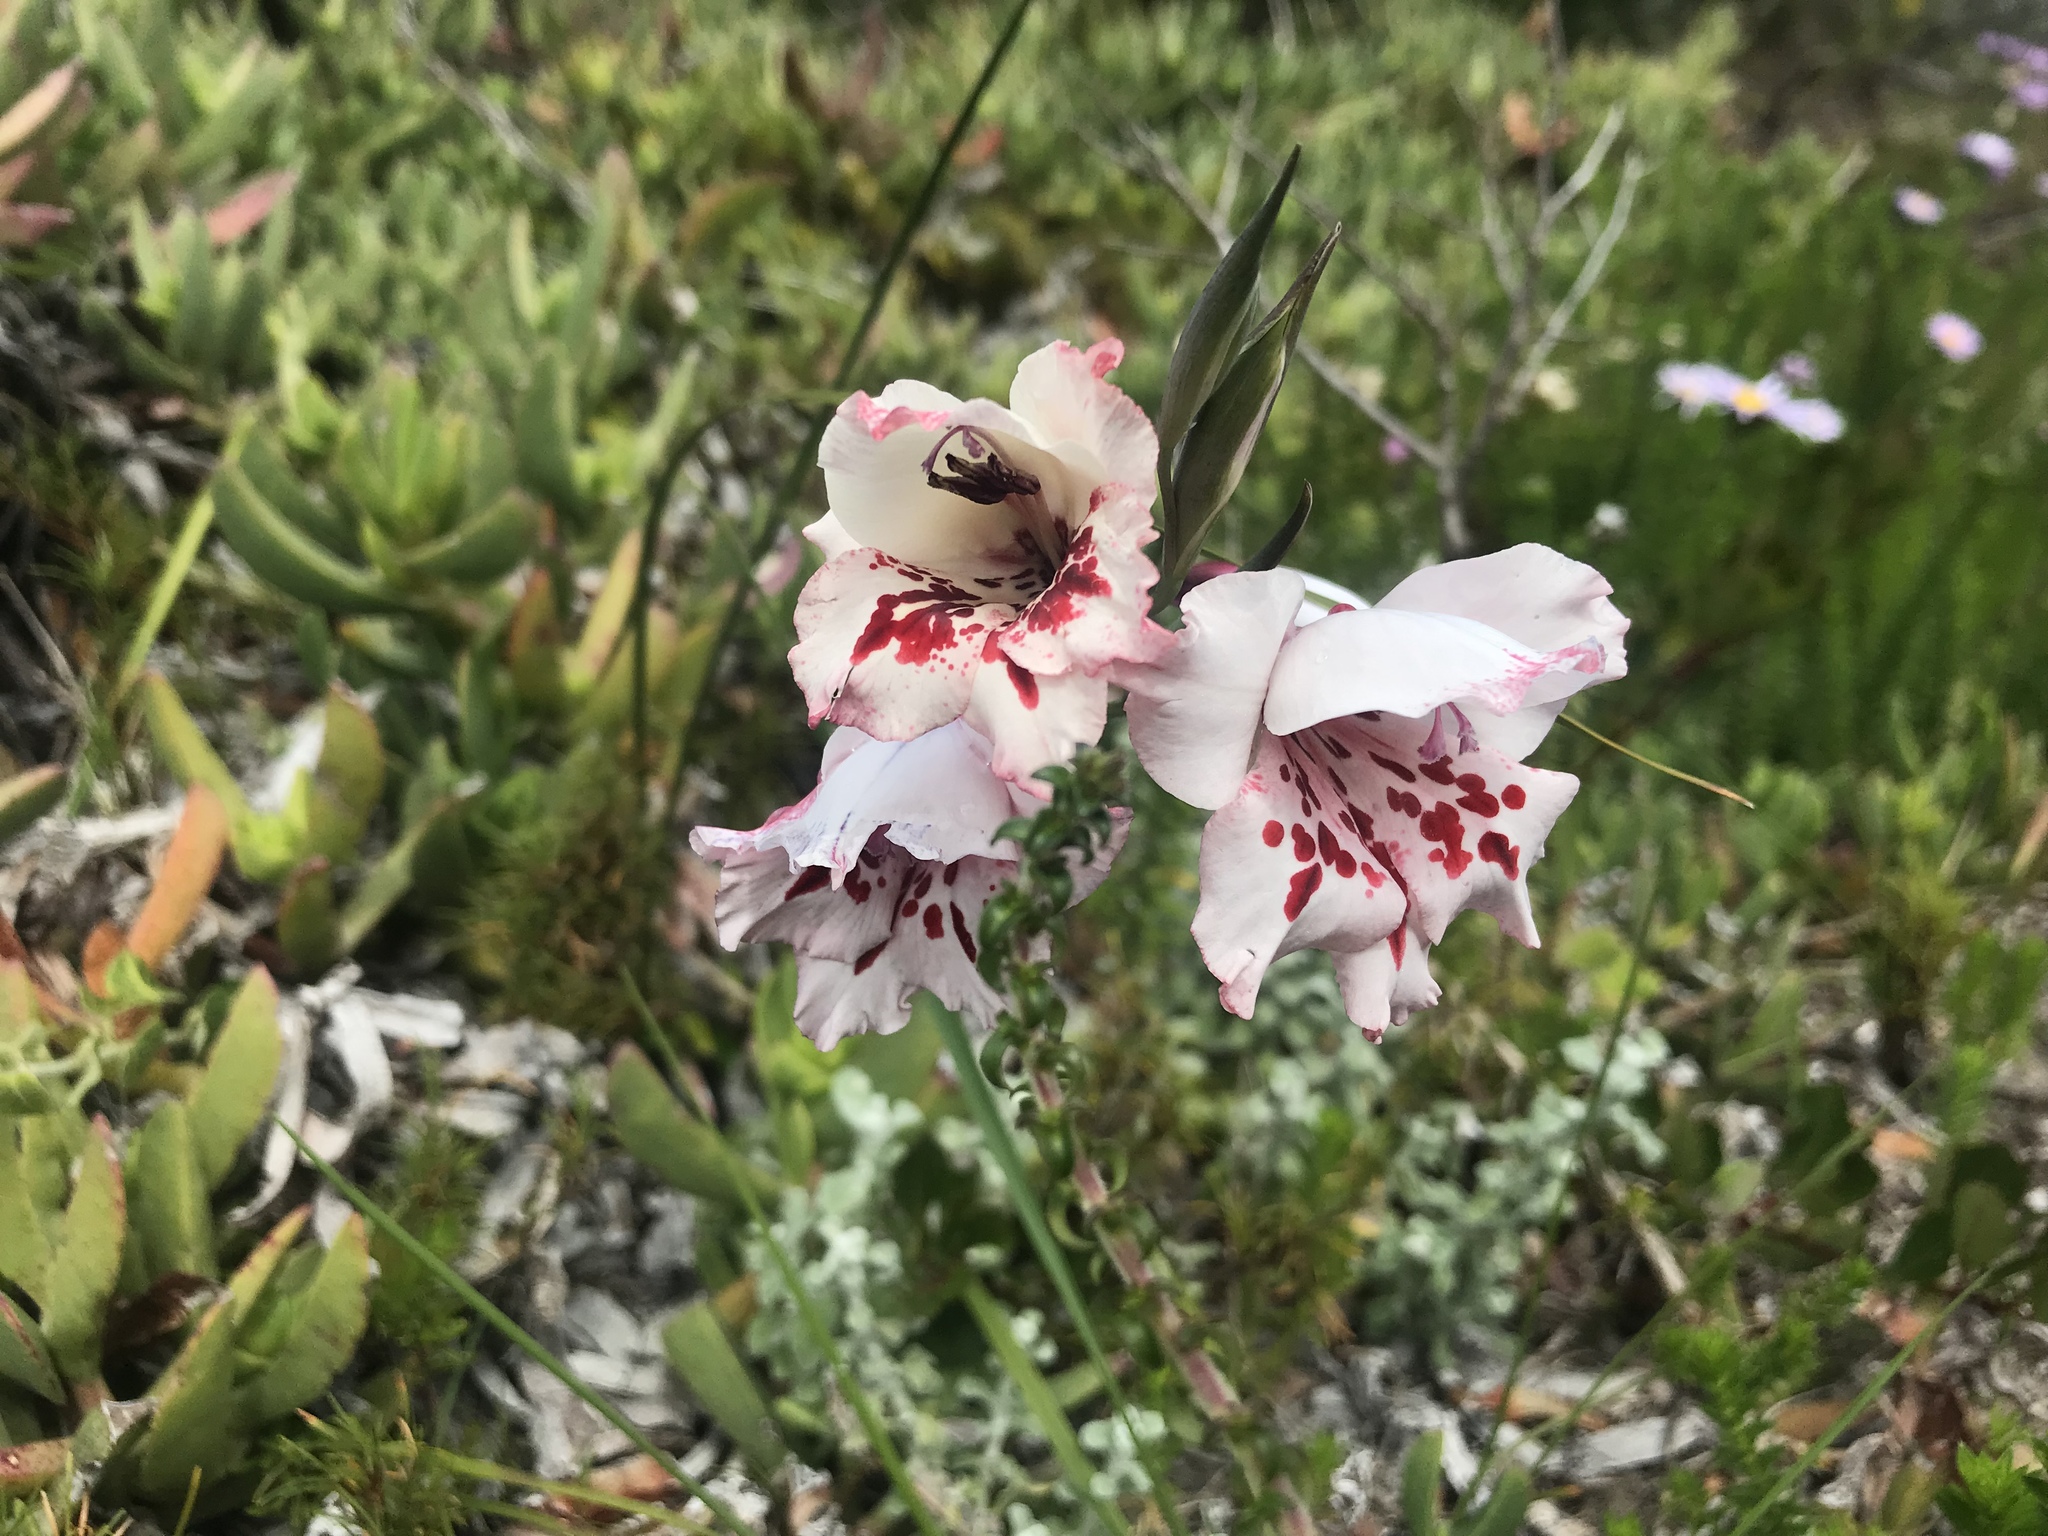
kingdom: Plantae
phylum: Tracheophyta
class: Liliopsida
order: Asparagales
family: Iridaceae
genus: Gladiolus
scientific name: Gladiolus variegatus
